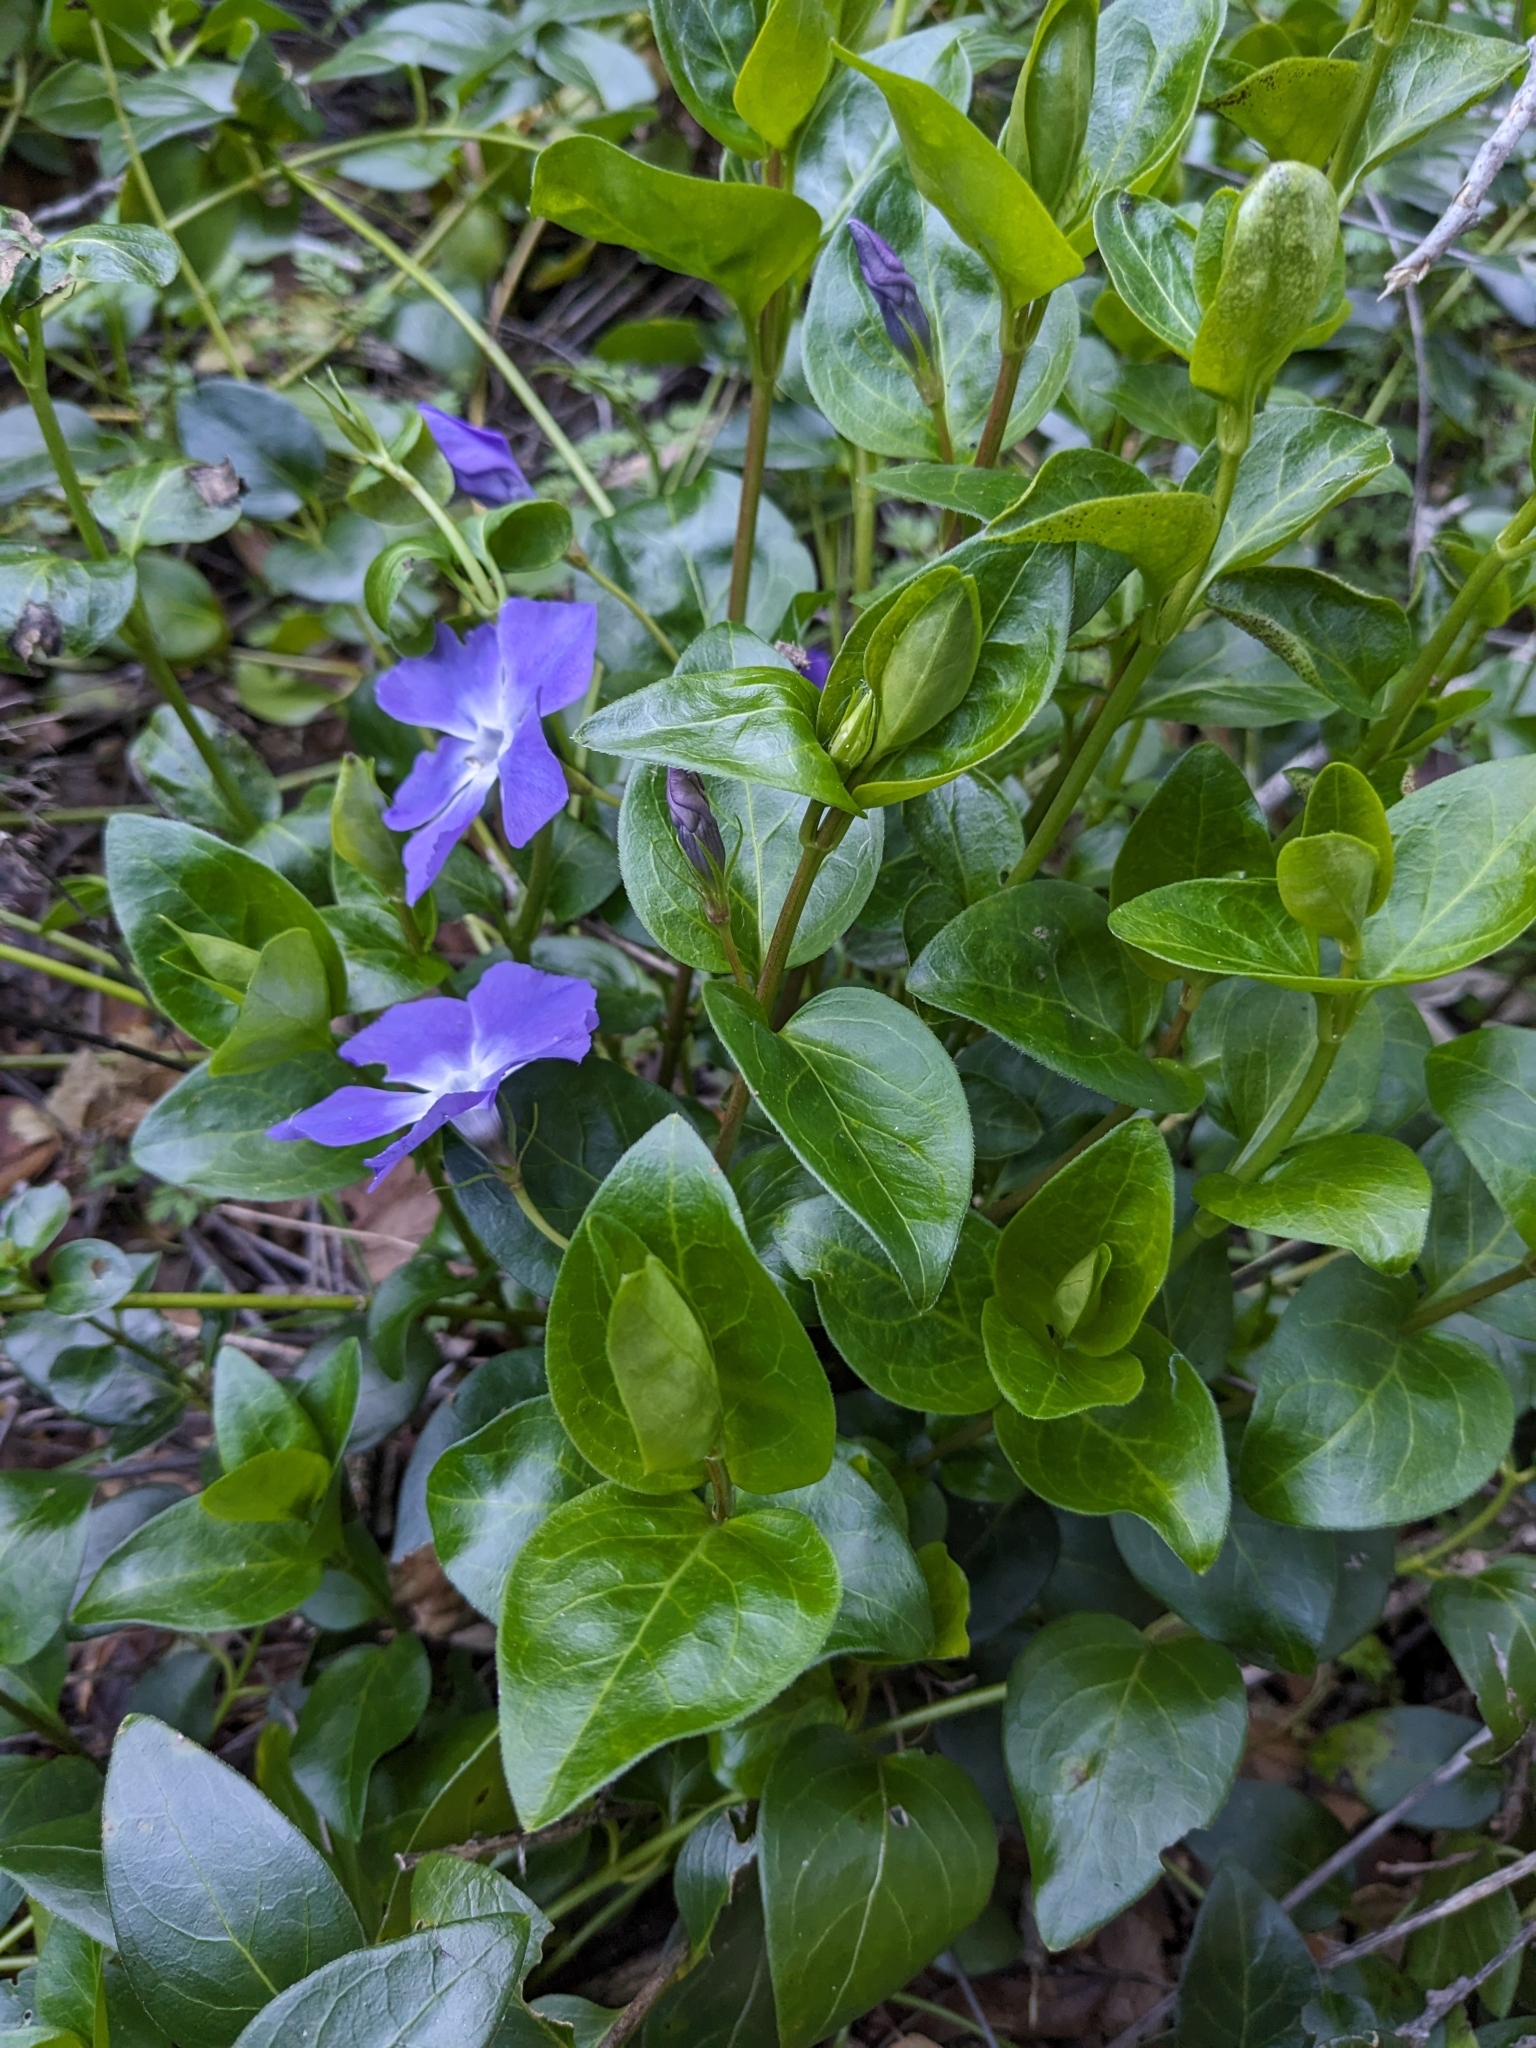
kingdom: Plantae
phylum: Tracheophyta
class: Magnoliopsida
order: Gentianales
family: Apocynaceae
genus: Vinca
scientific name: Vinca major
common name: Greater periwinkle
